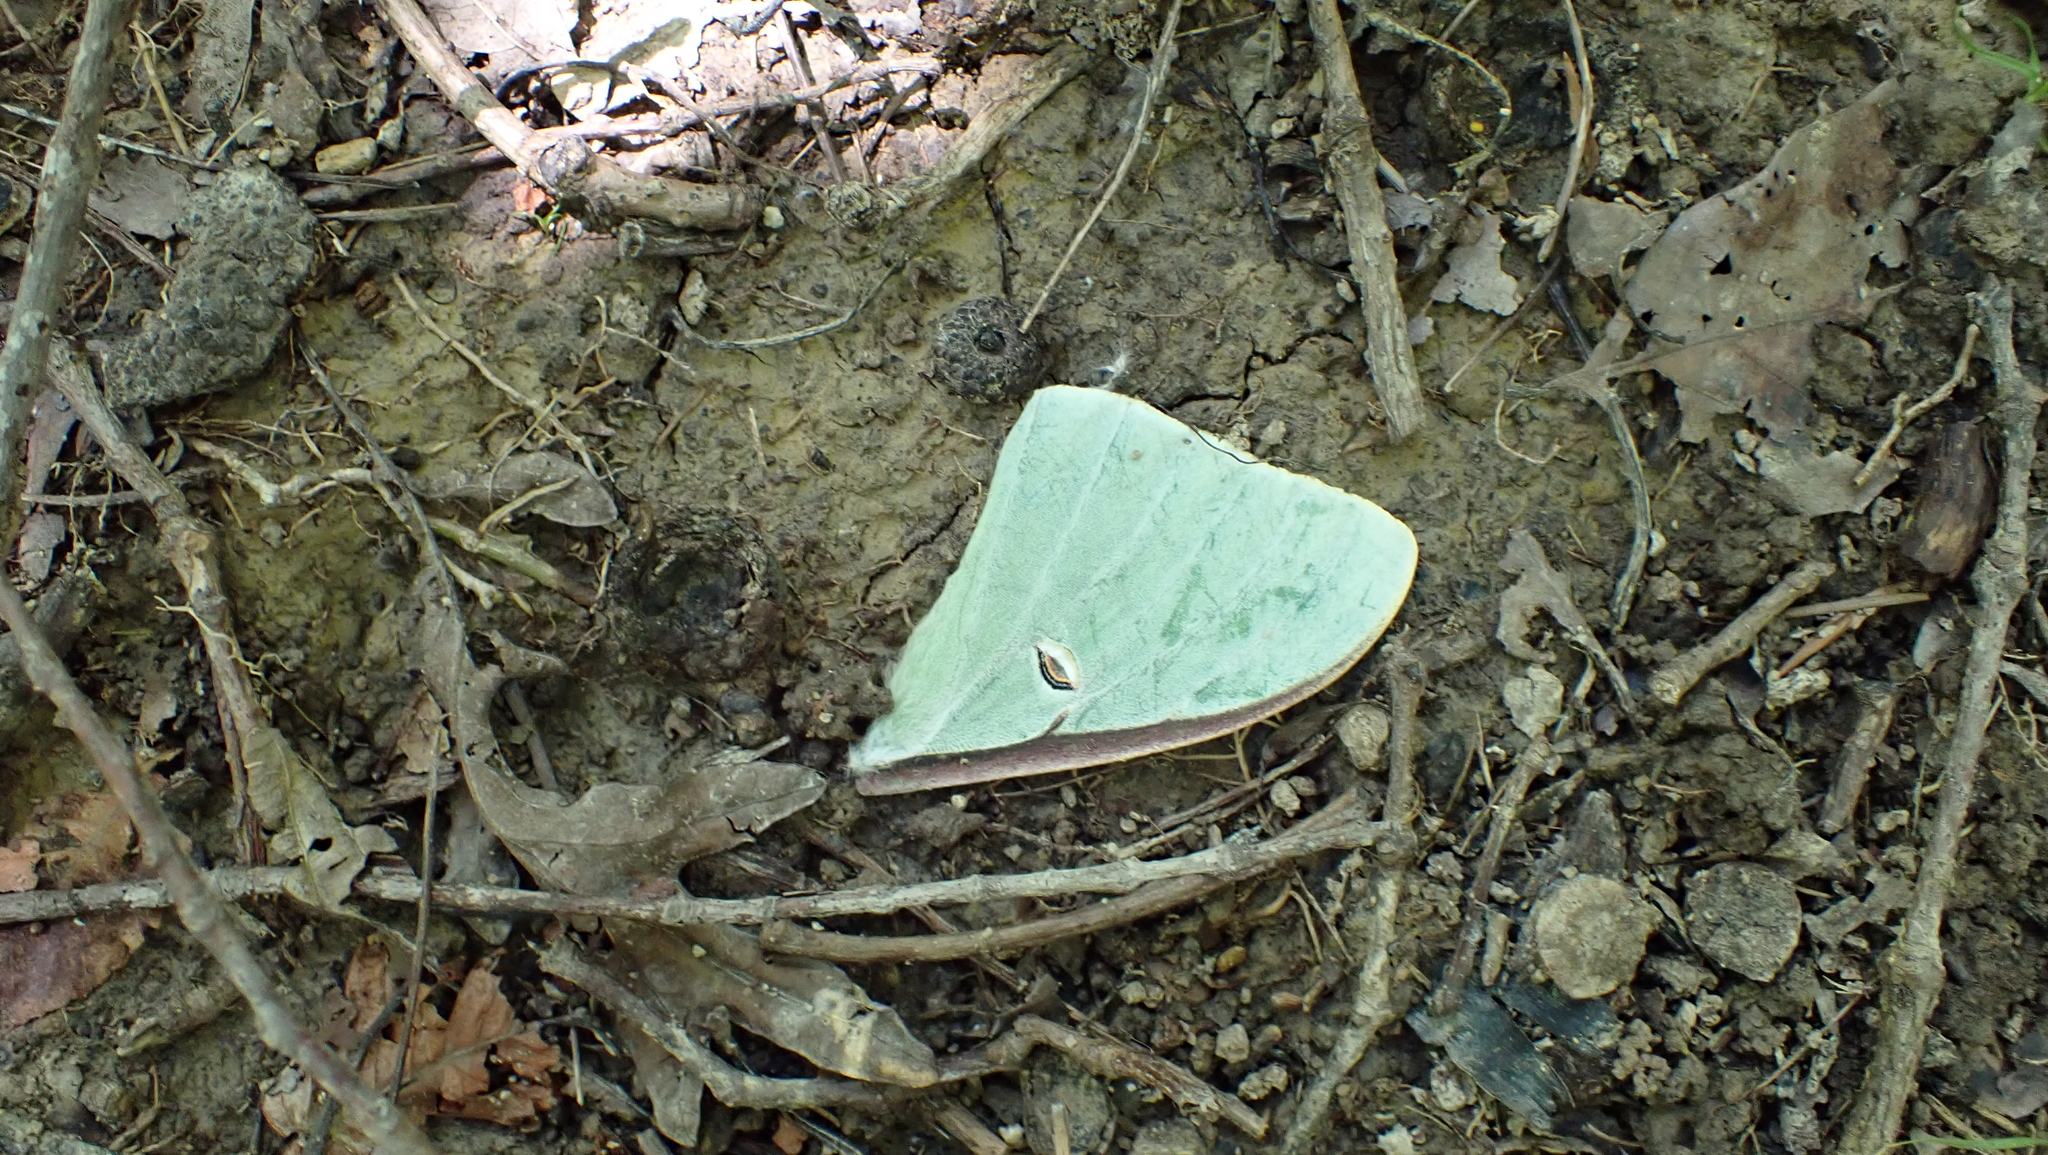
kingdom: Animalia
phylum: Arthropoda
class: Insecta
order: Lepidoptera
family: Saturniidae
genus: Actias
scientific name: Actias luna
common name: Luna moth
